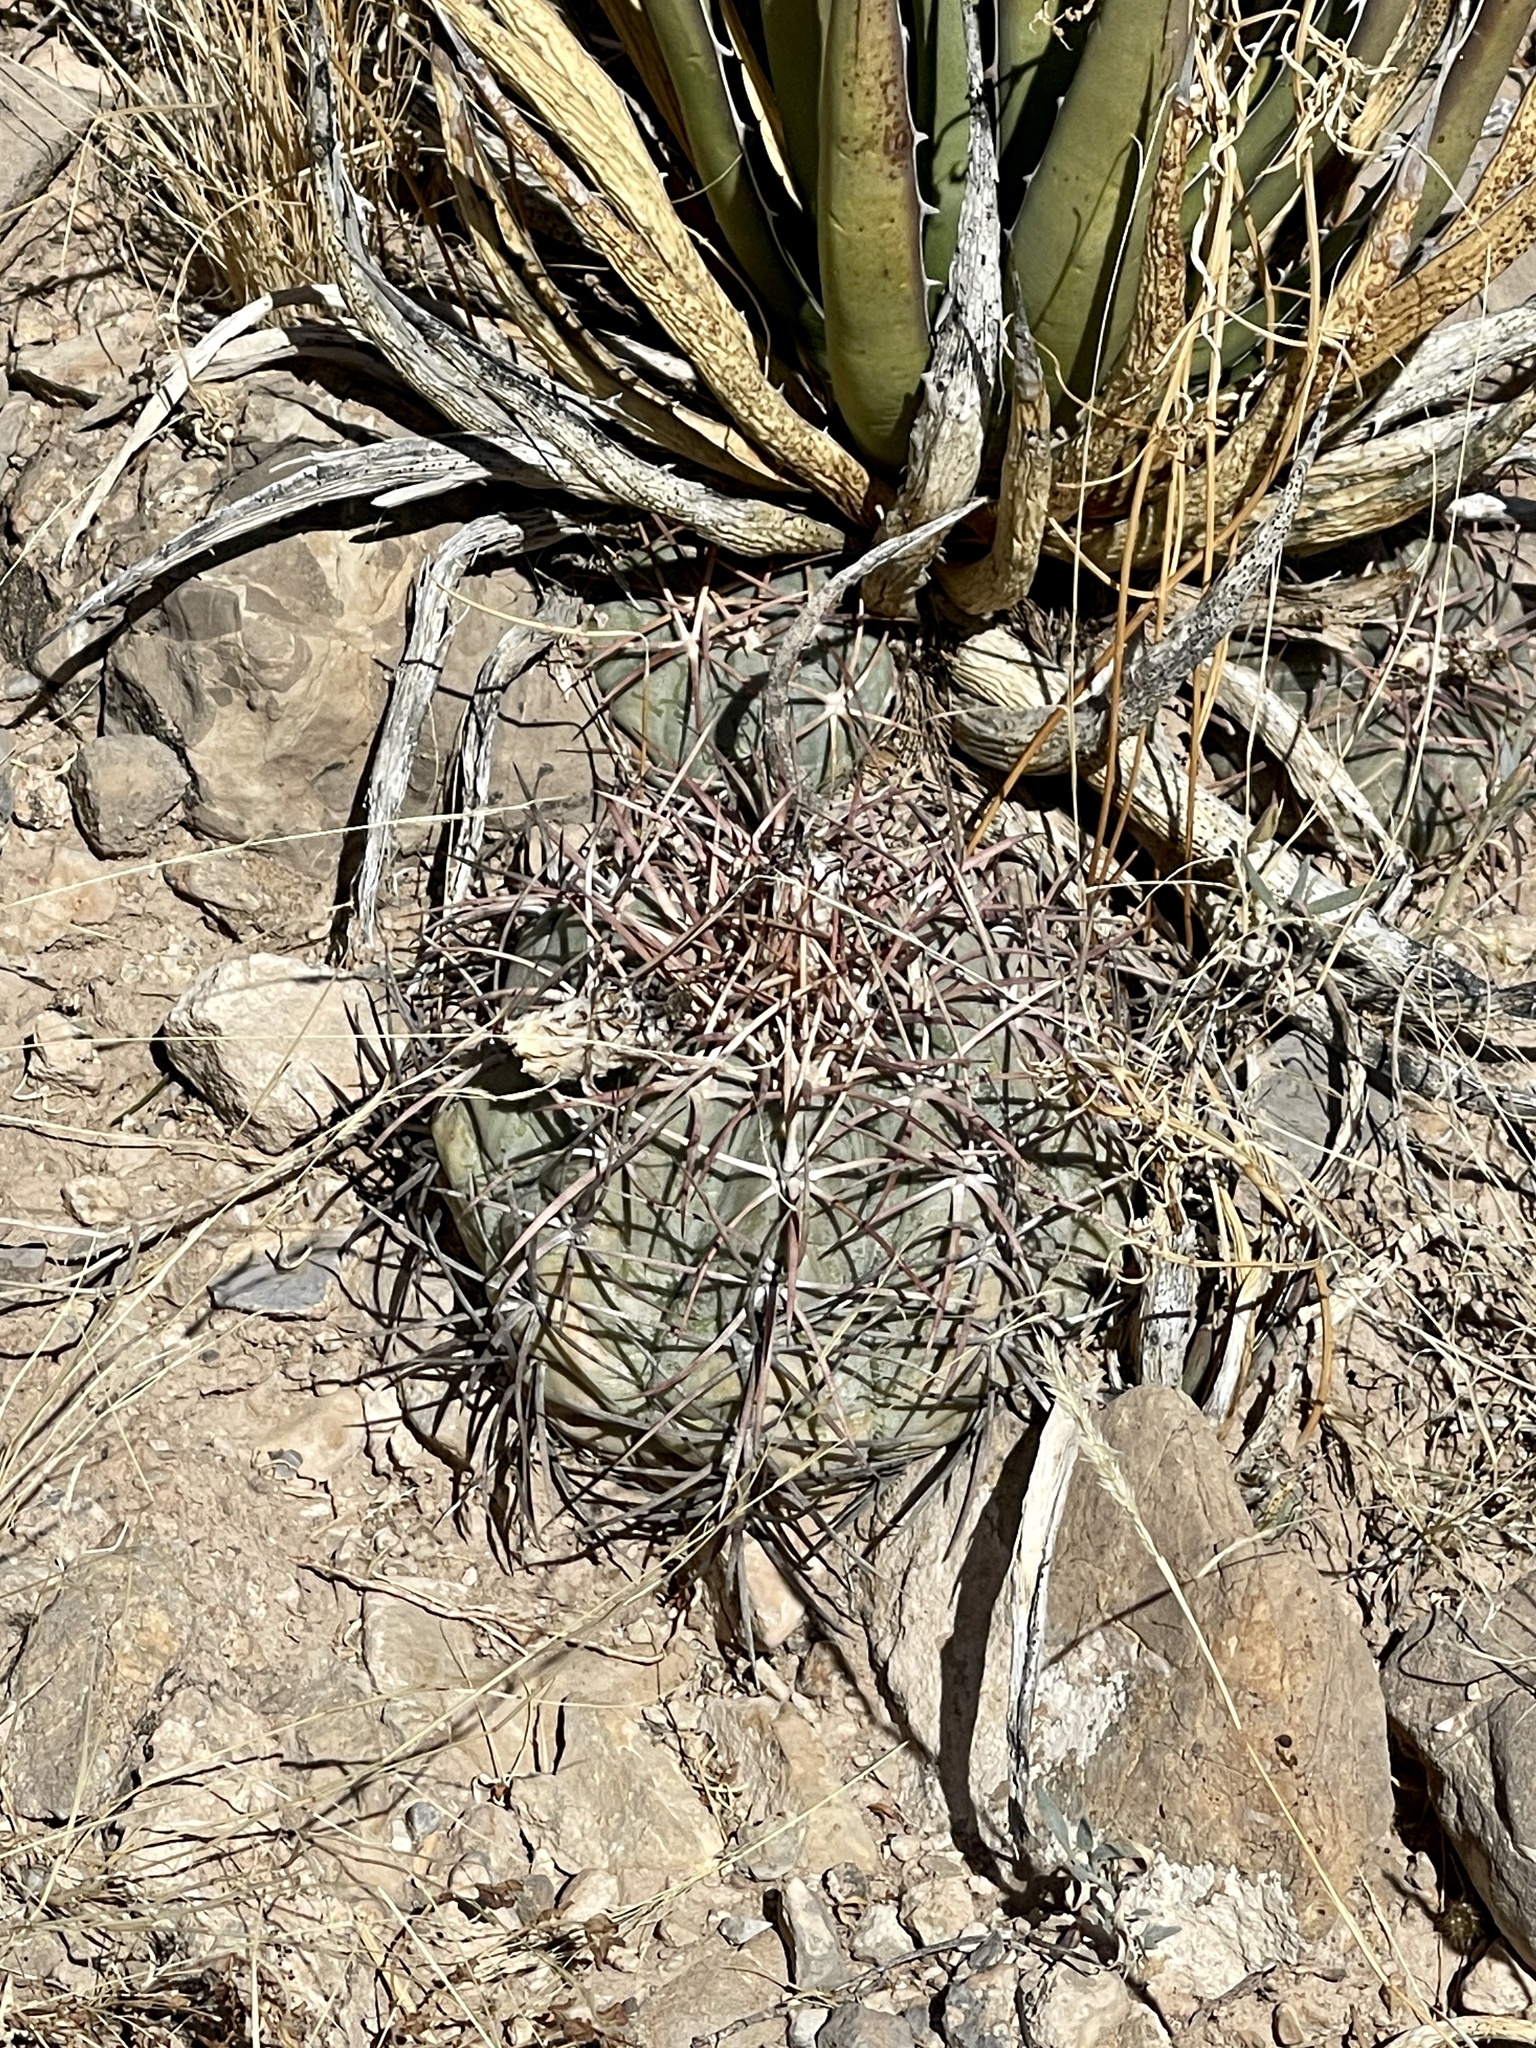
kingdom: Plantae
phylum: Tracheophyta
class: Magnoliopsida
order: Caryophyllales
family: Cactaceae
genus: Echinocactus
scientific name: Echinocactus horizonthalonius
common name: Devilshead
